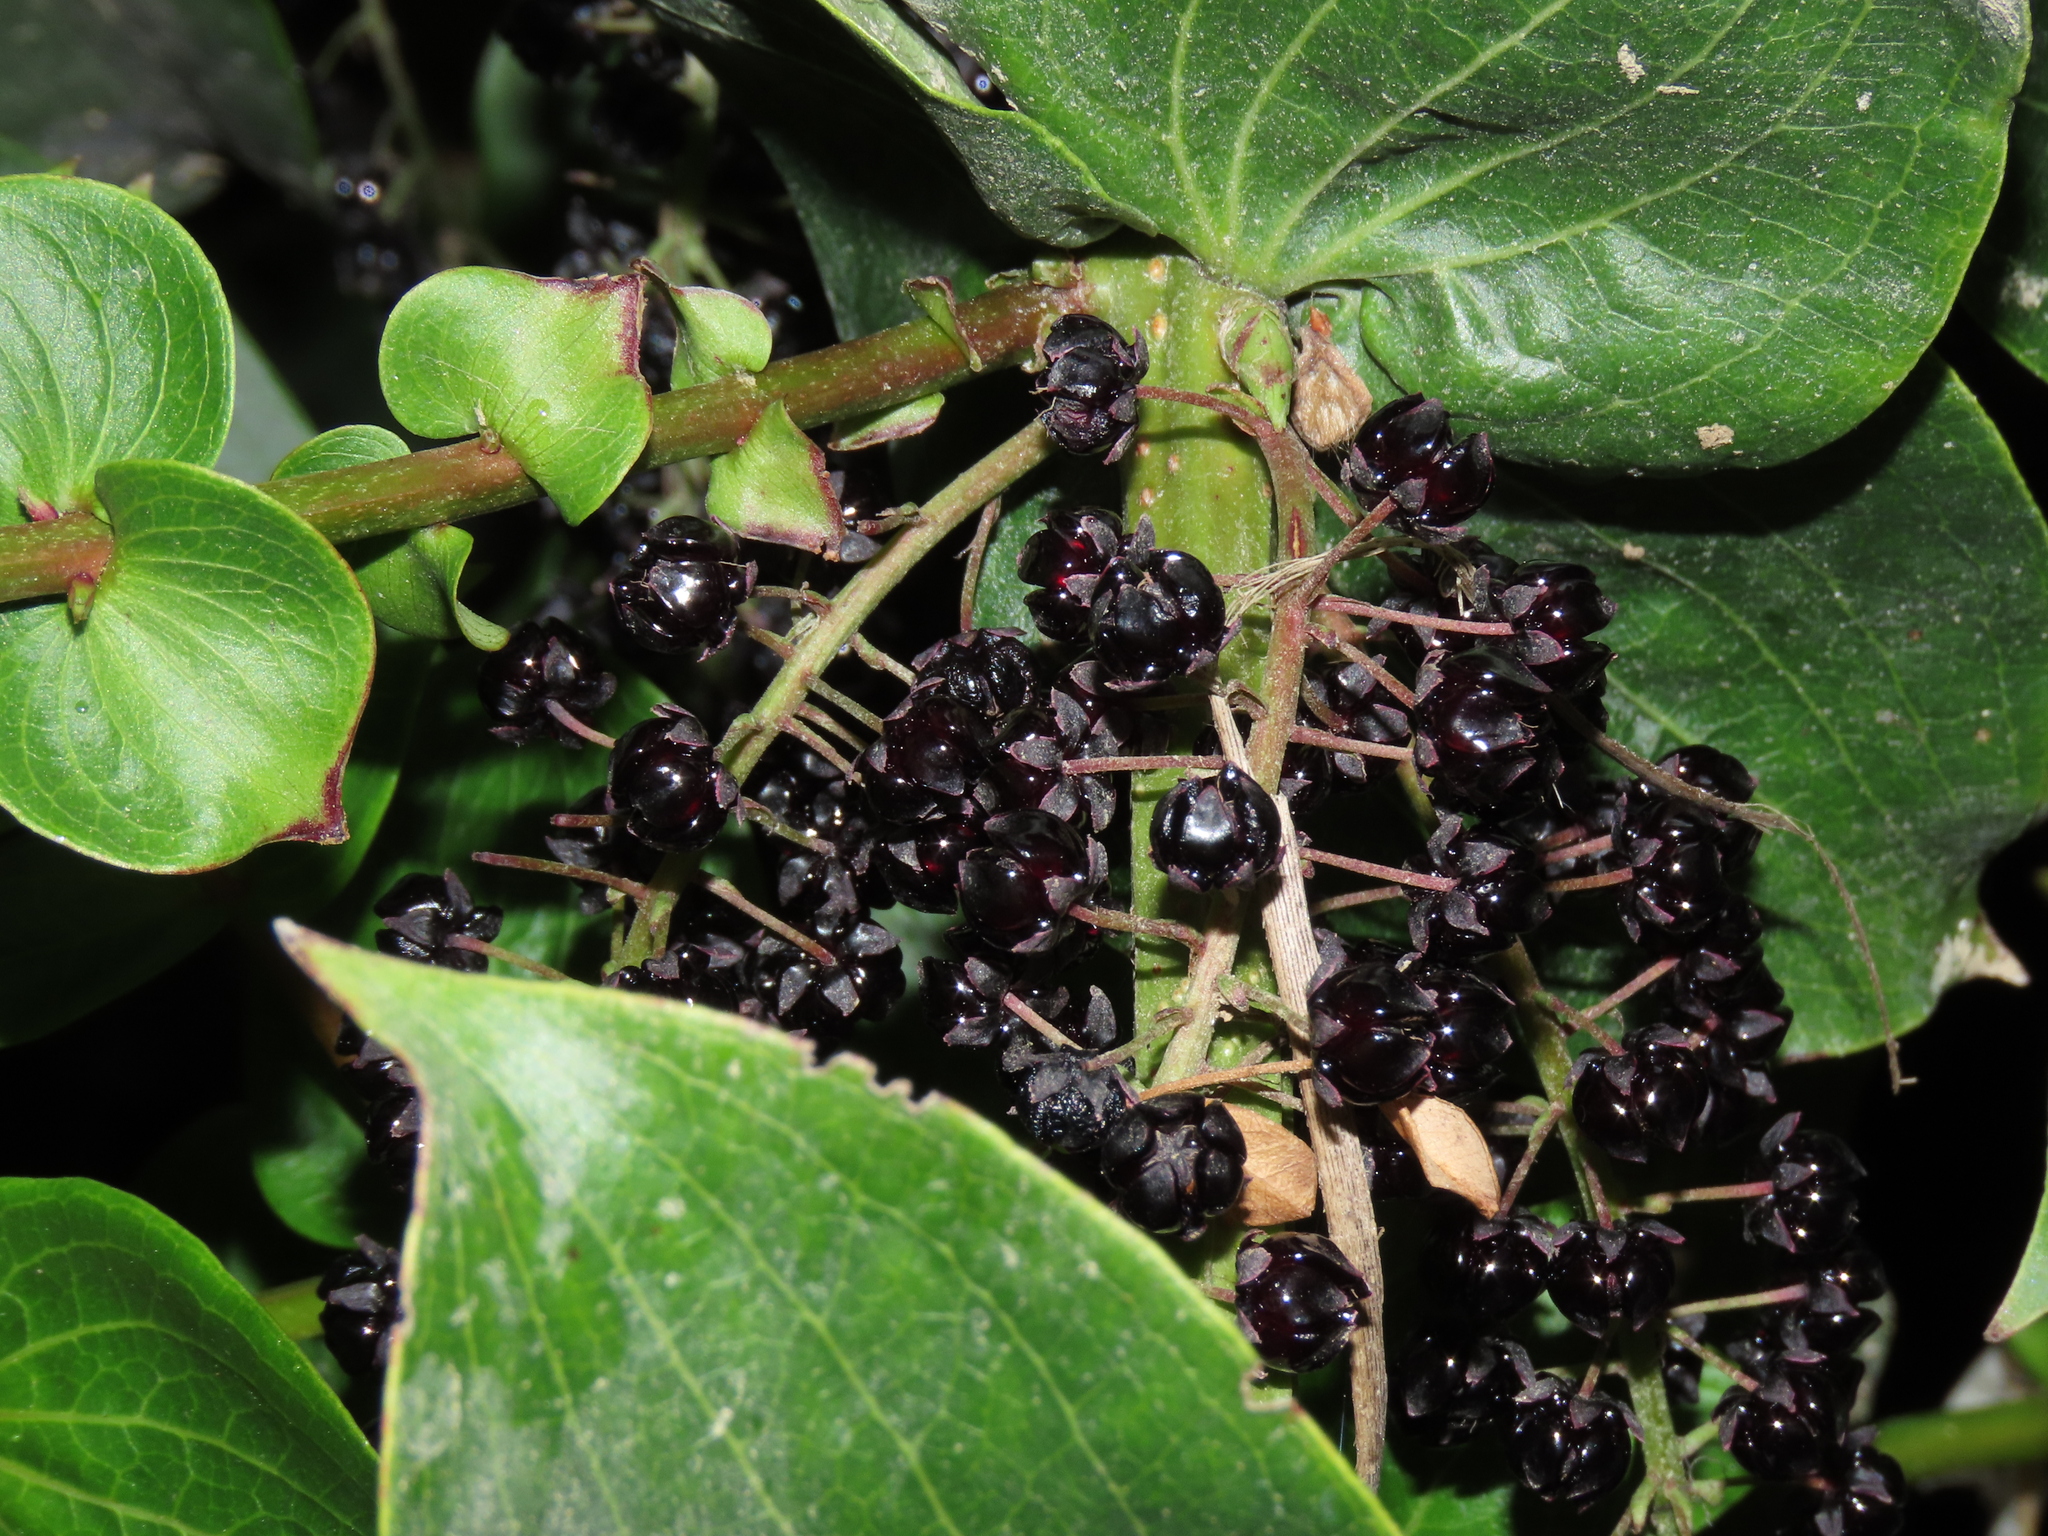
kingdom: Plantae
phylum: Tracheophyta
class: Magnoliopsida
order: Cucurbitales
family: Coriariaceae
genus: Coriaria
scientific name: Coriaria ruscifolia
